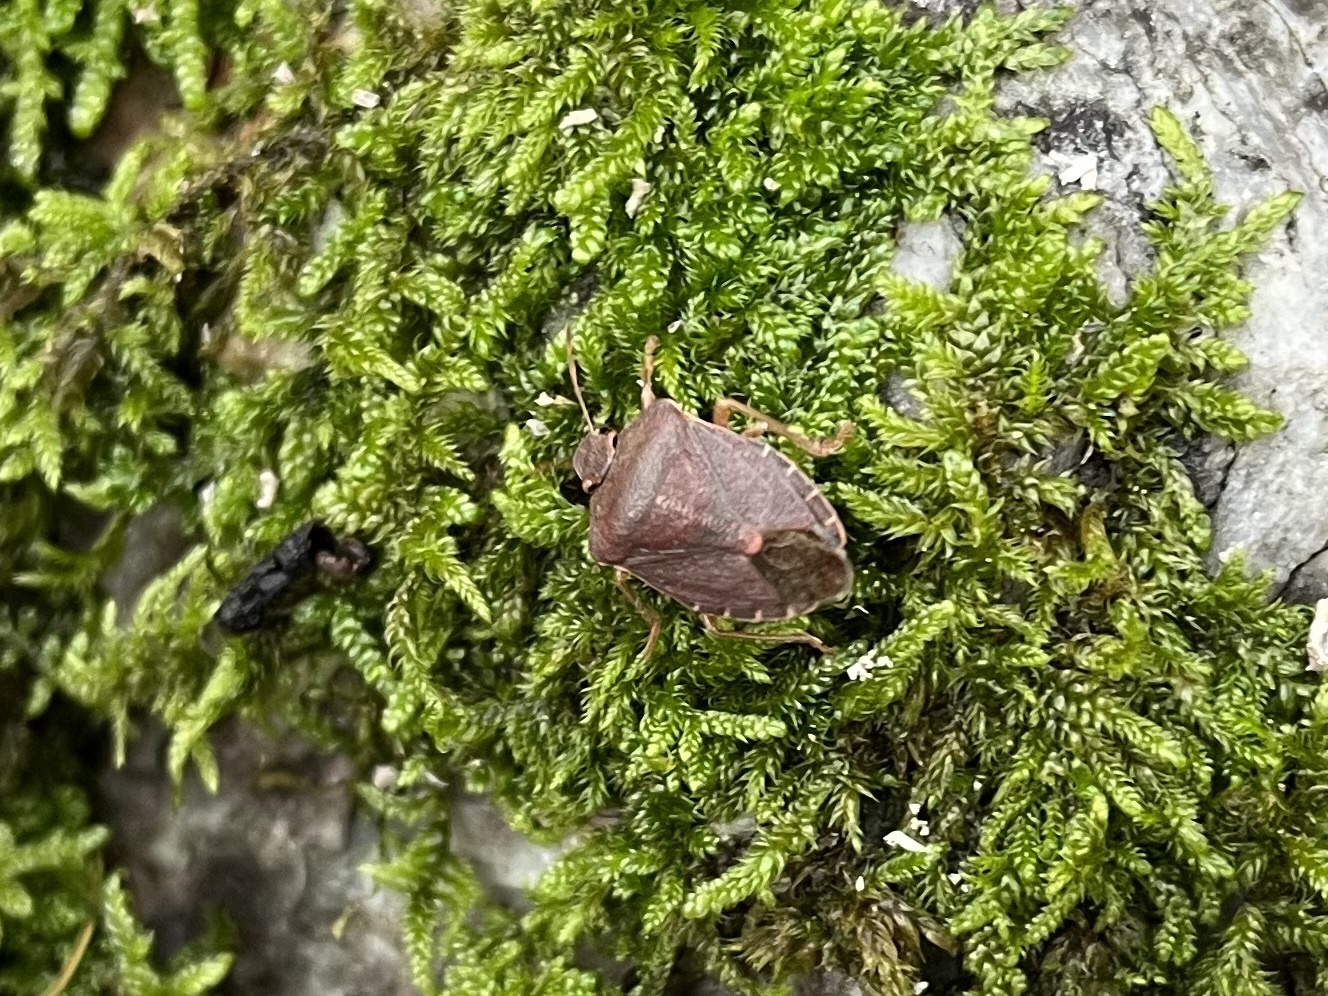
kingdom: Animalia
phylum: Arthropoda
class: Insecta
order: Hemiptera
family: Pentatomidae
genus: Palomena
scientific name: Palomena prasina
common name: Green shieldbug
